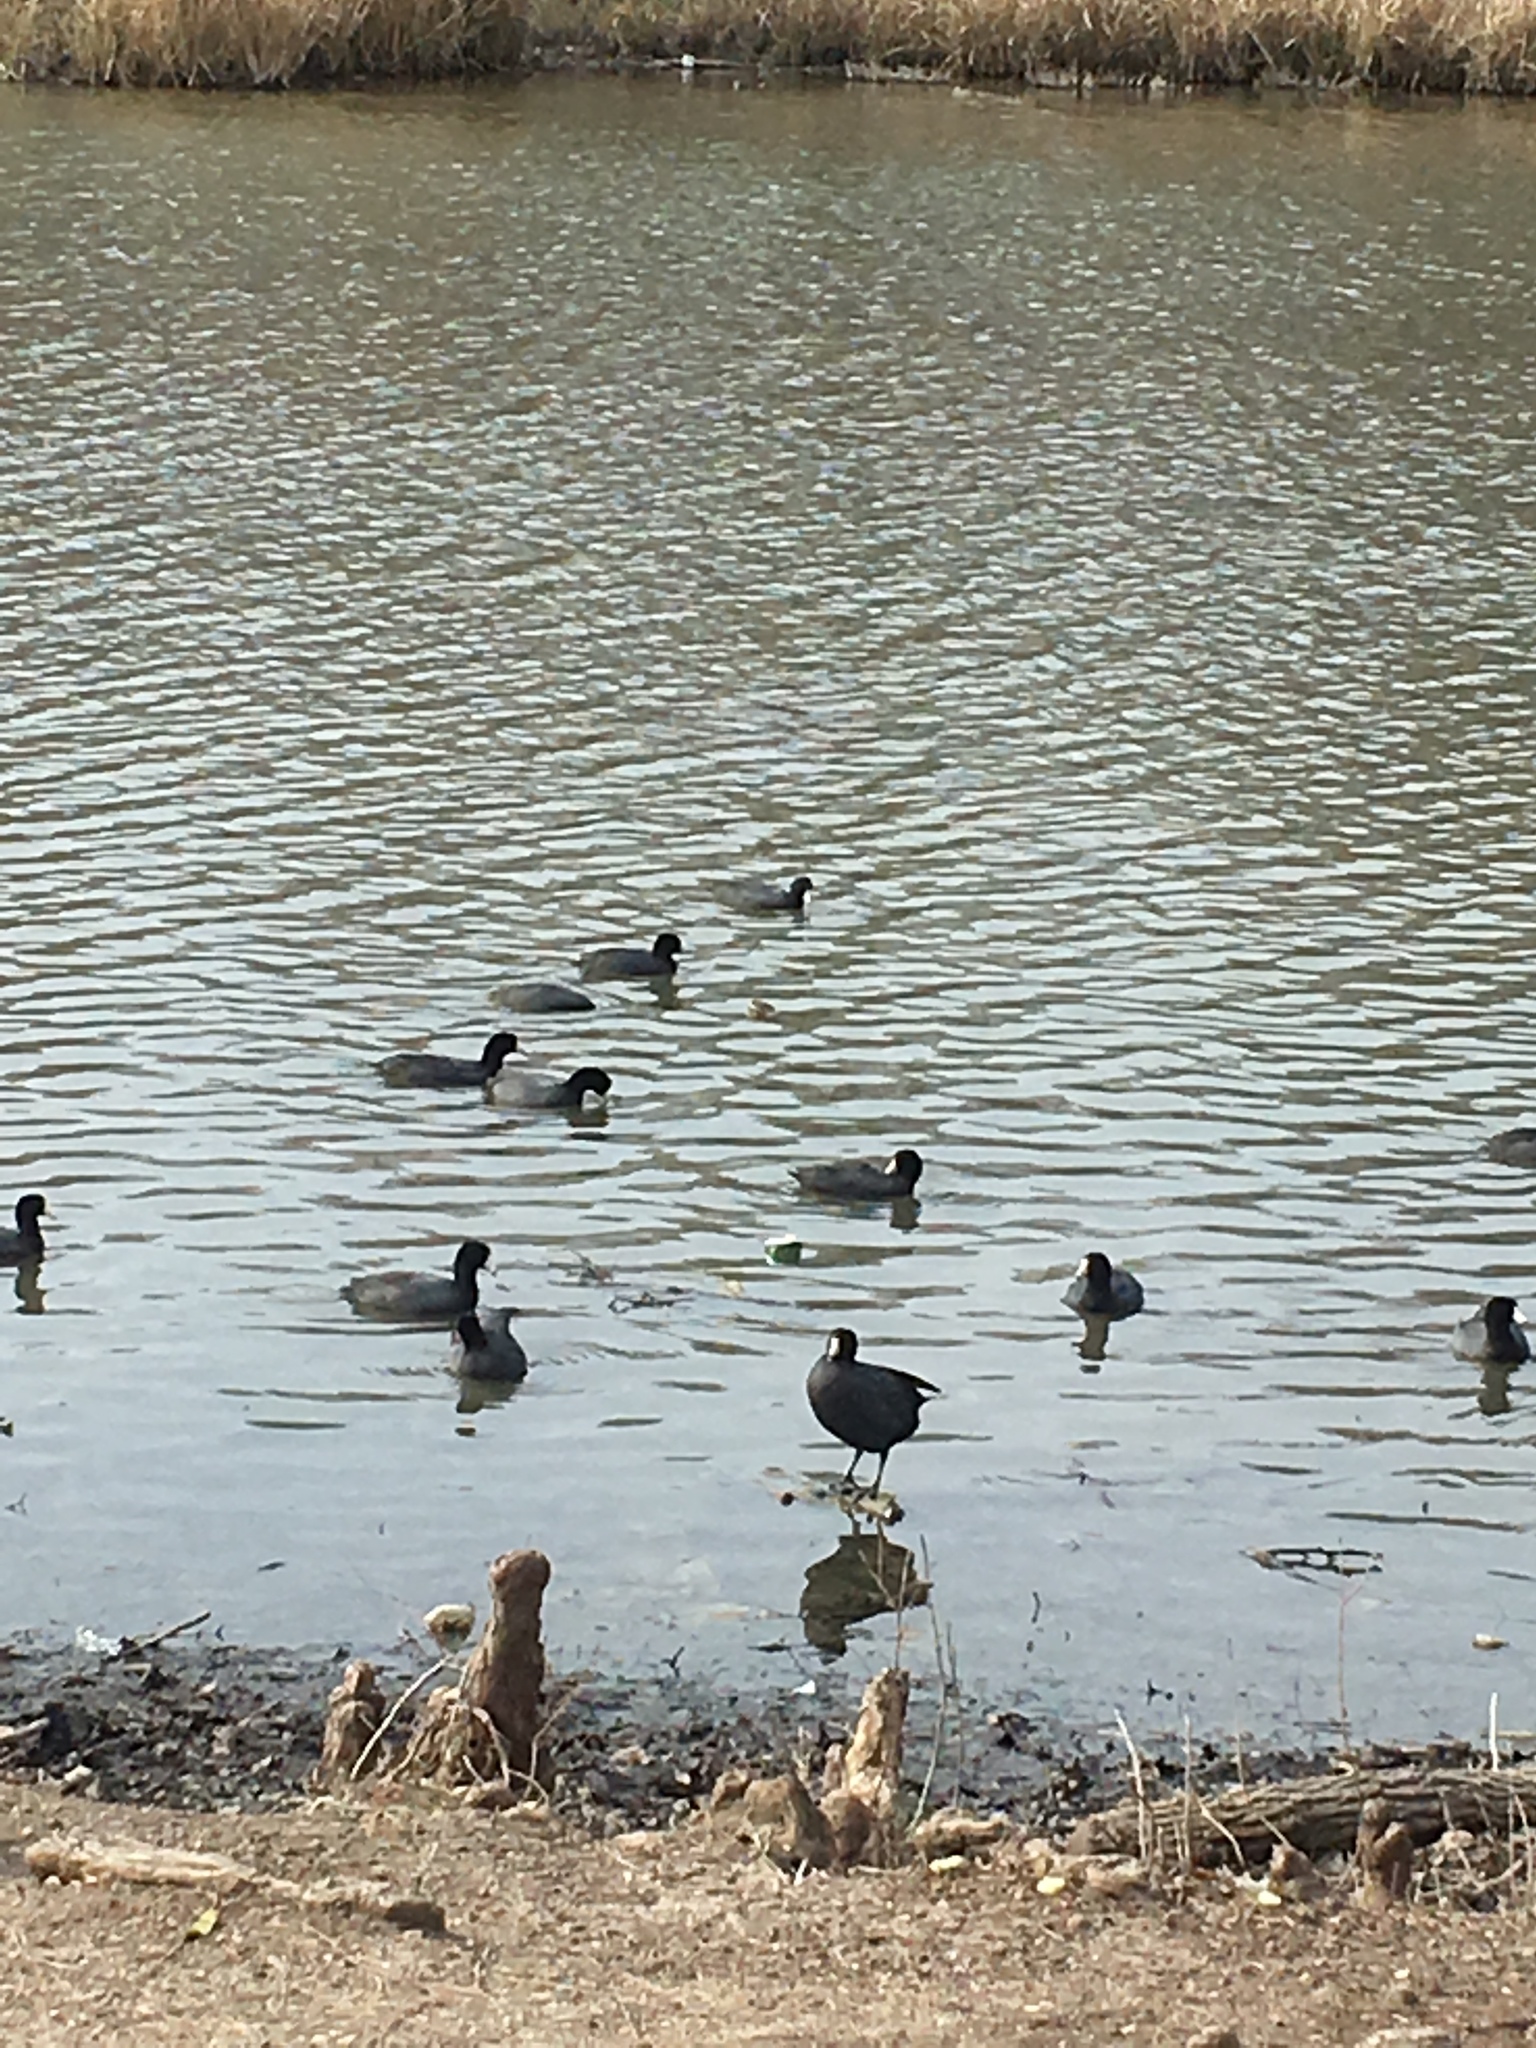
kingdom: Animalia
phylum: Chordata
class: Aves
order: Gruiformes
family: Rallidae
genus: Fulica
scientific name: Fulica americana
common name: American coot
